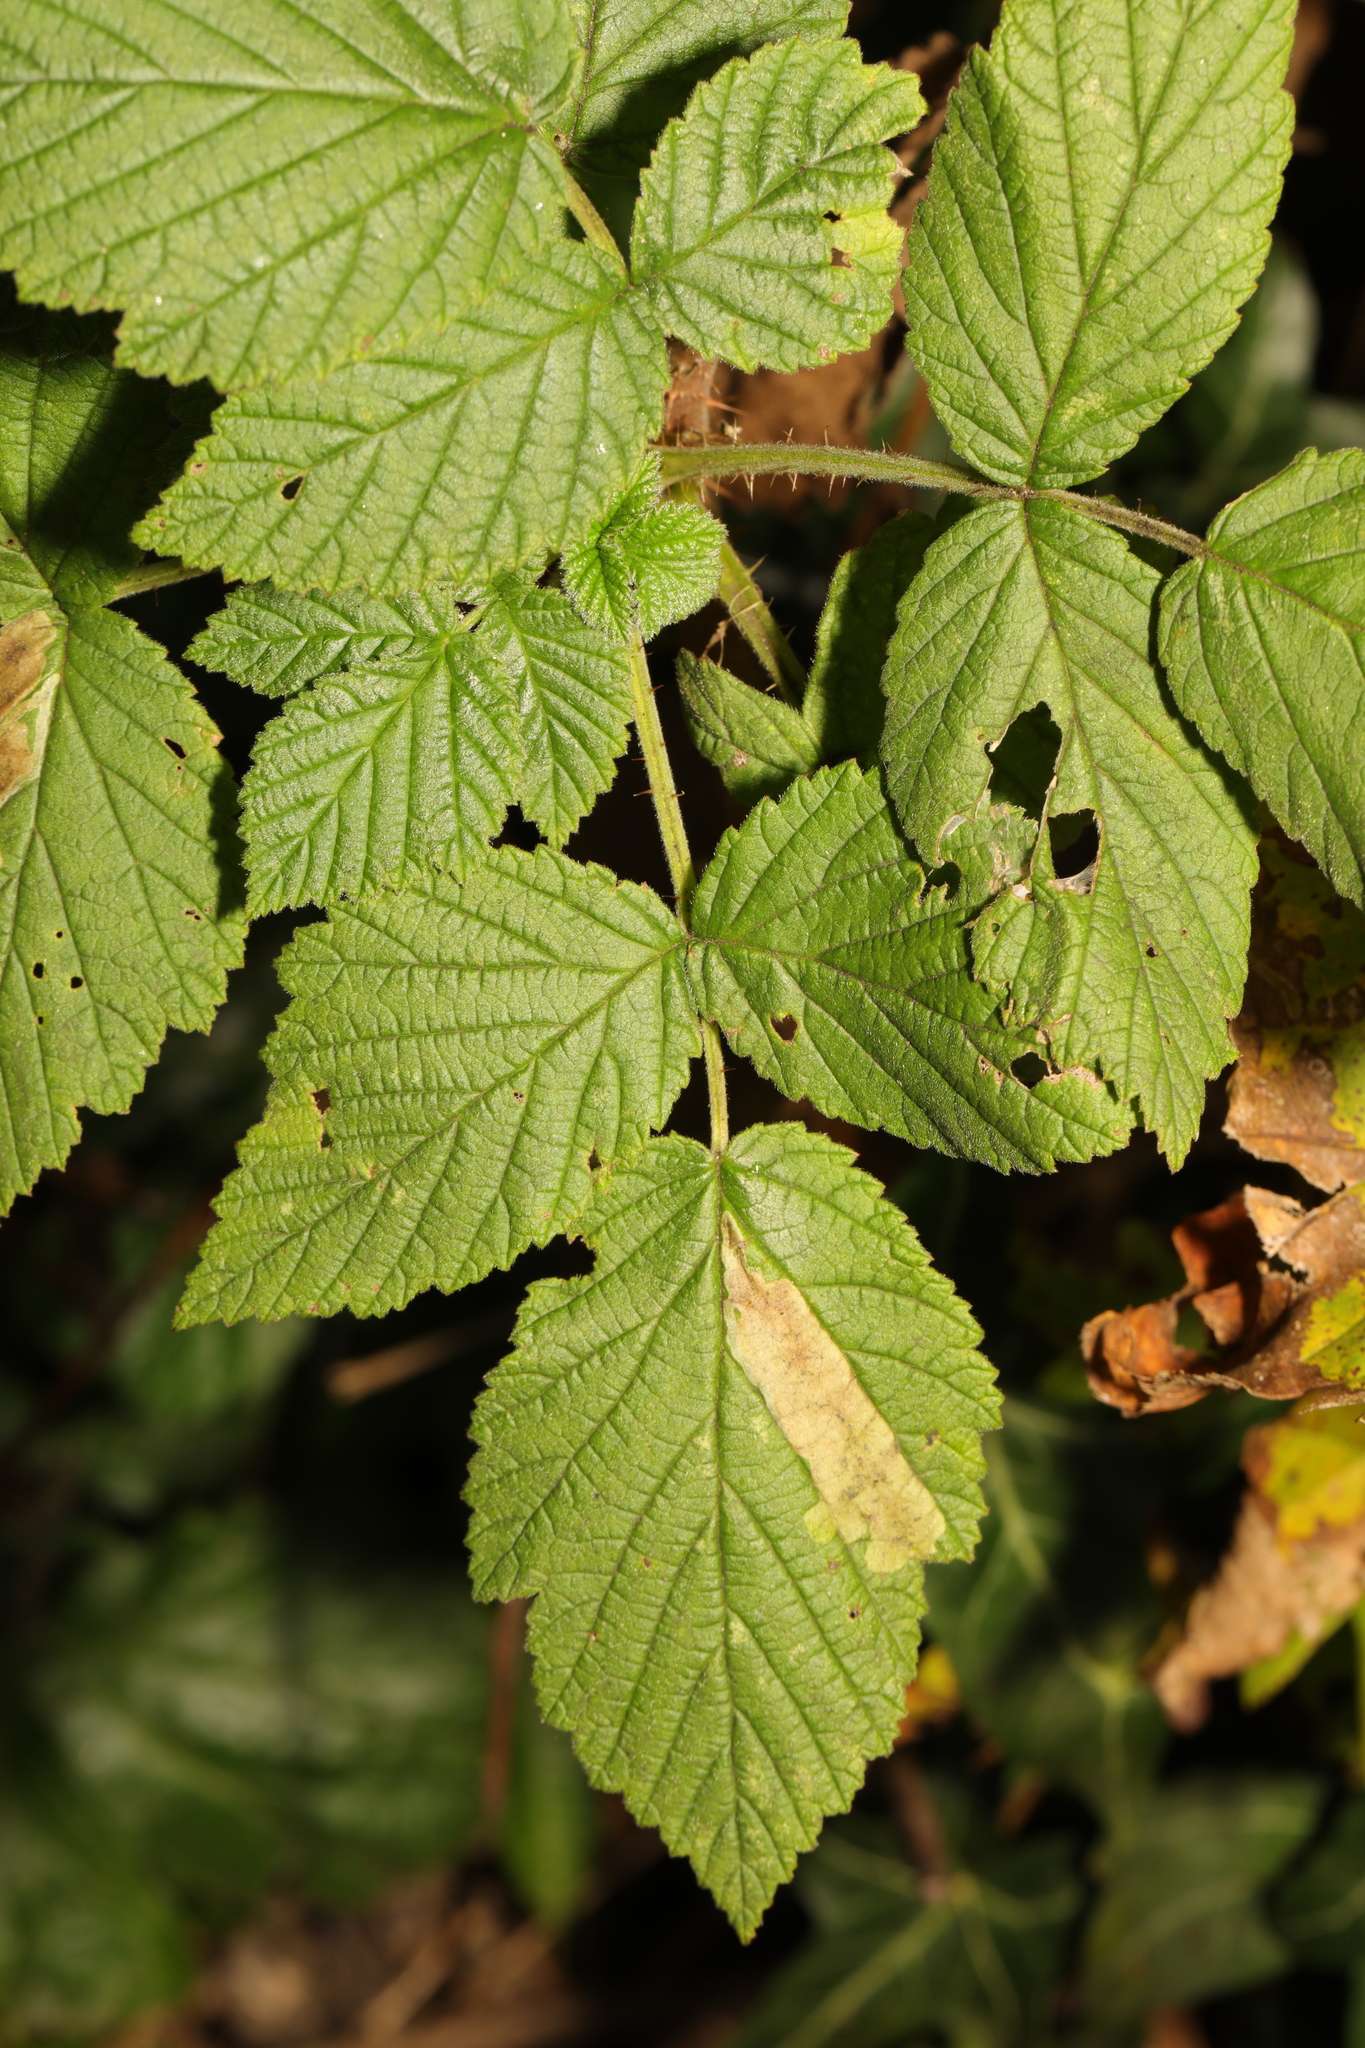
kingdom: Plantae
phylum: Tracheophyta
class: Magnoliopsida
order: Rosales
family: Rosaceae
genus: Rubus
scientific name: Rubus idaeus
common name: Raspberry
